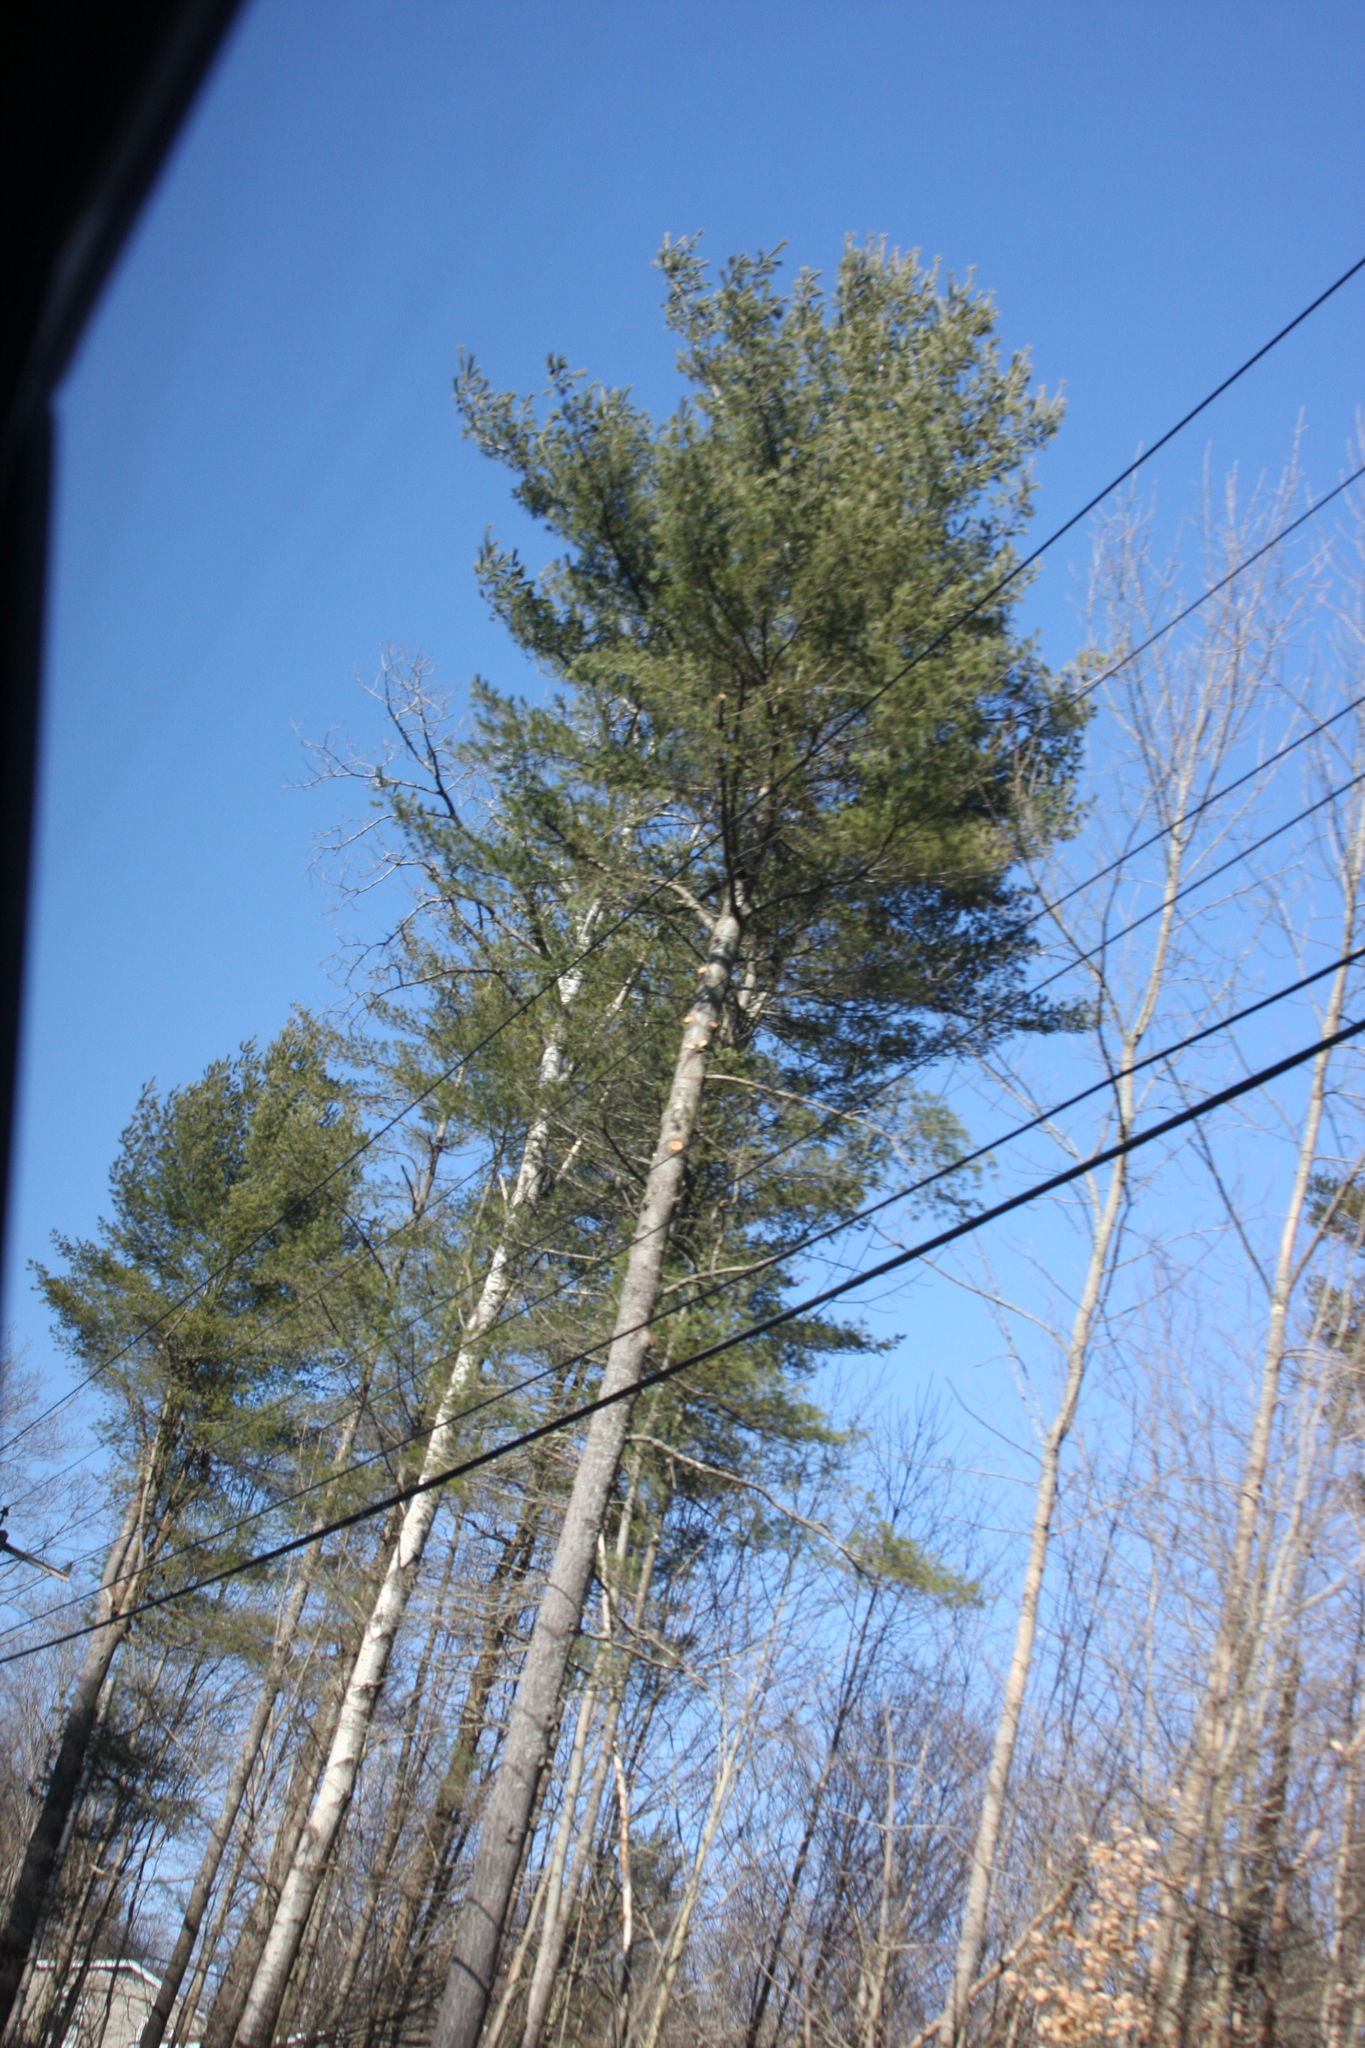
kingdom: Plantae
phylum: Tracheophyta
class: Pinopsida
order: Pinales
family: Pinaceae
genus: Pinus
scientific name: Pinus strobus
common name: Weymouth pine
